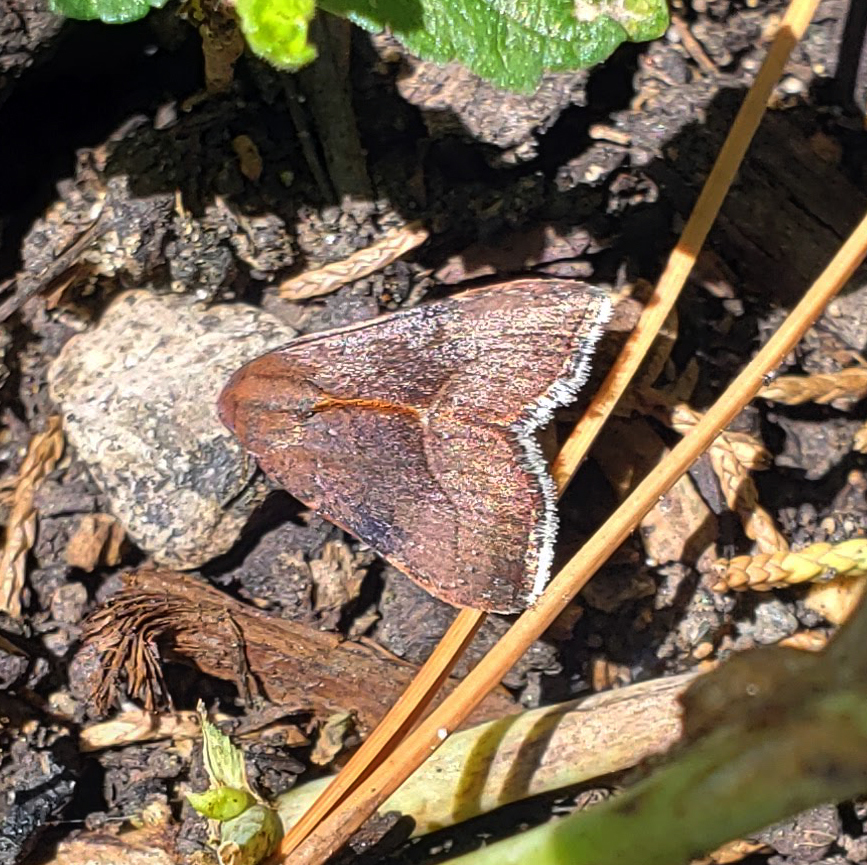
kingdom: Animalia
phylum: Arthropoda
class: Insecta
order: Lepidoptera
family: Noctuidae
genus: Galgula
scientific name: Galgula partita
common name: Wedgeling
